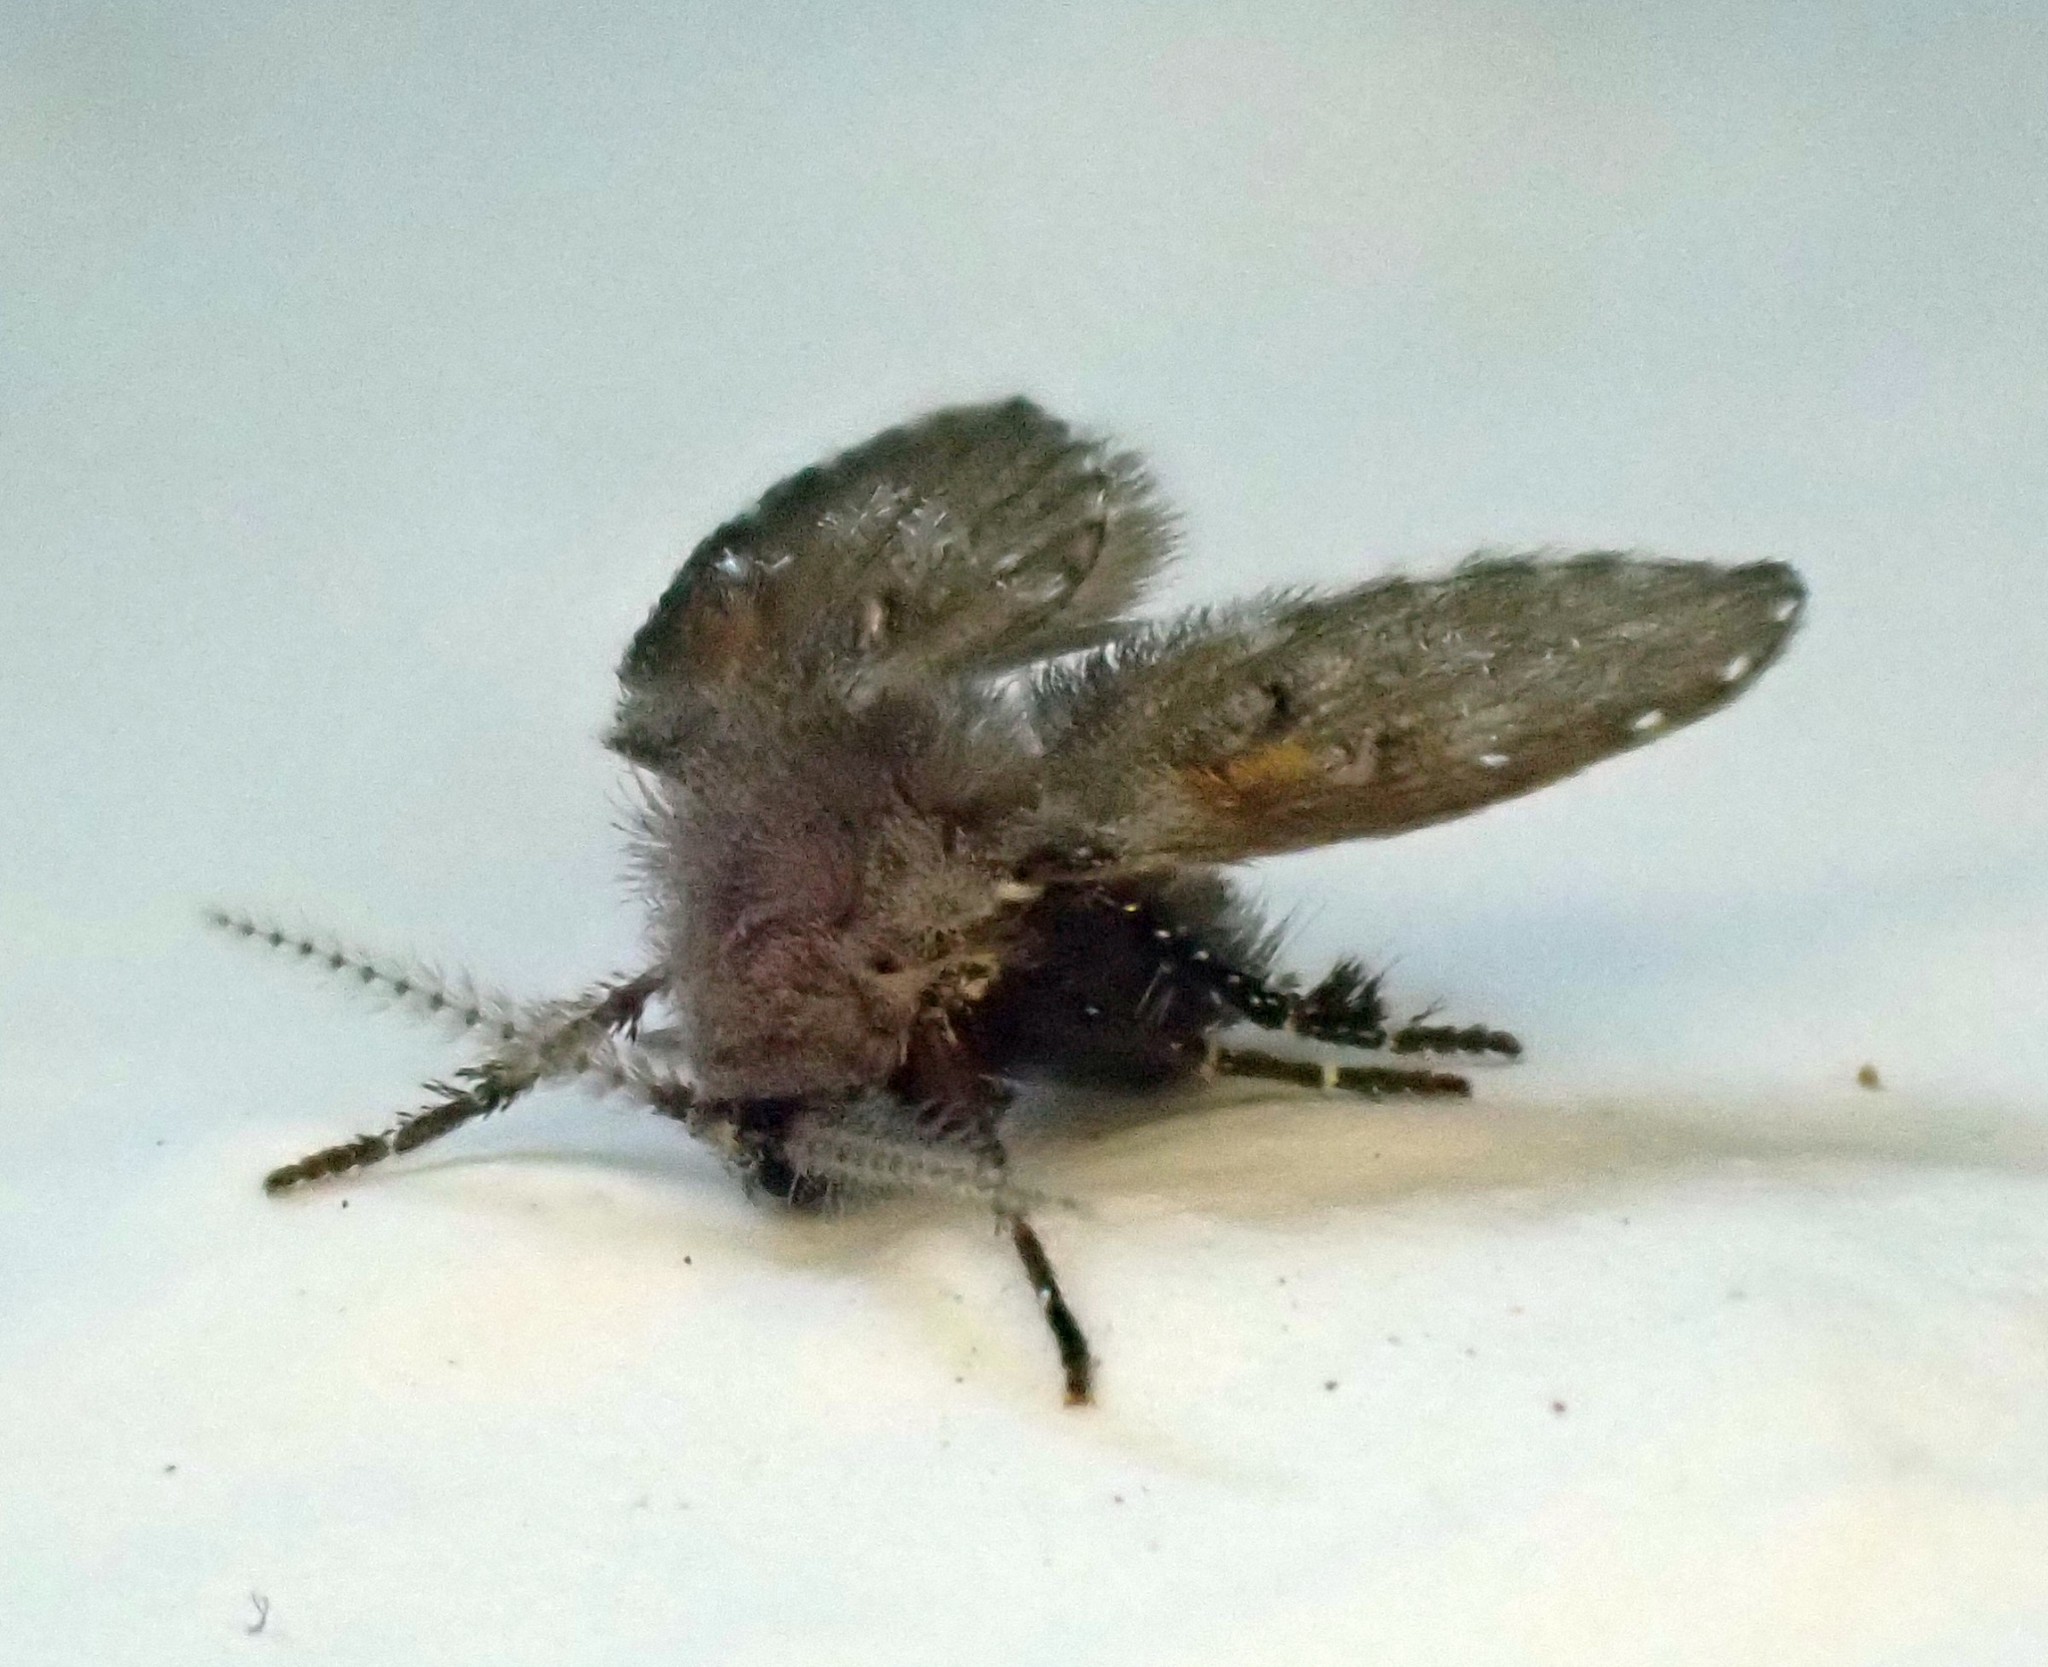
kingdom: Animalia
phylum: Arthropoda
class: Insecta
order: Diptera
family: Psychodidae
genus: Clogmia
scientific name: Clogmia albipunctatus
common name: White-spotted moth fly
